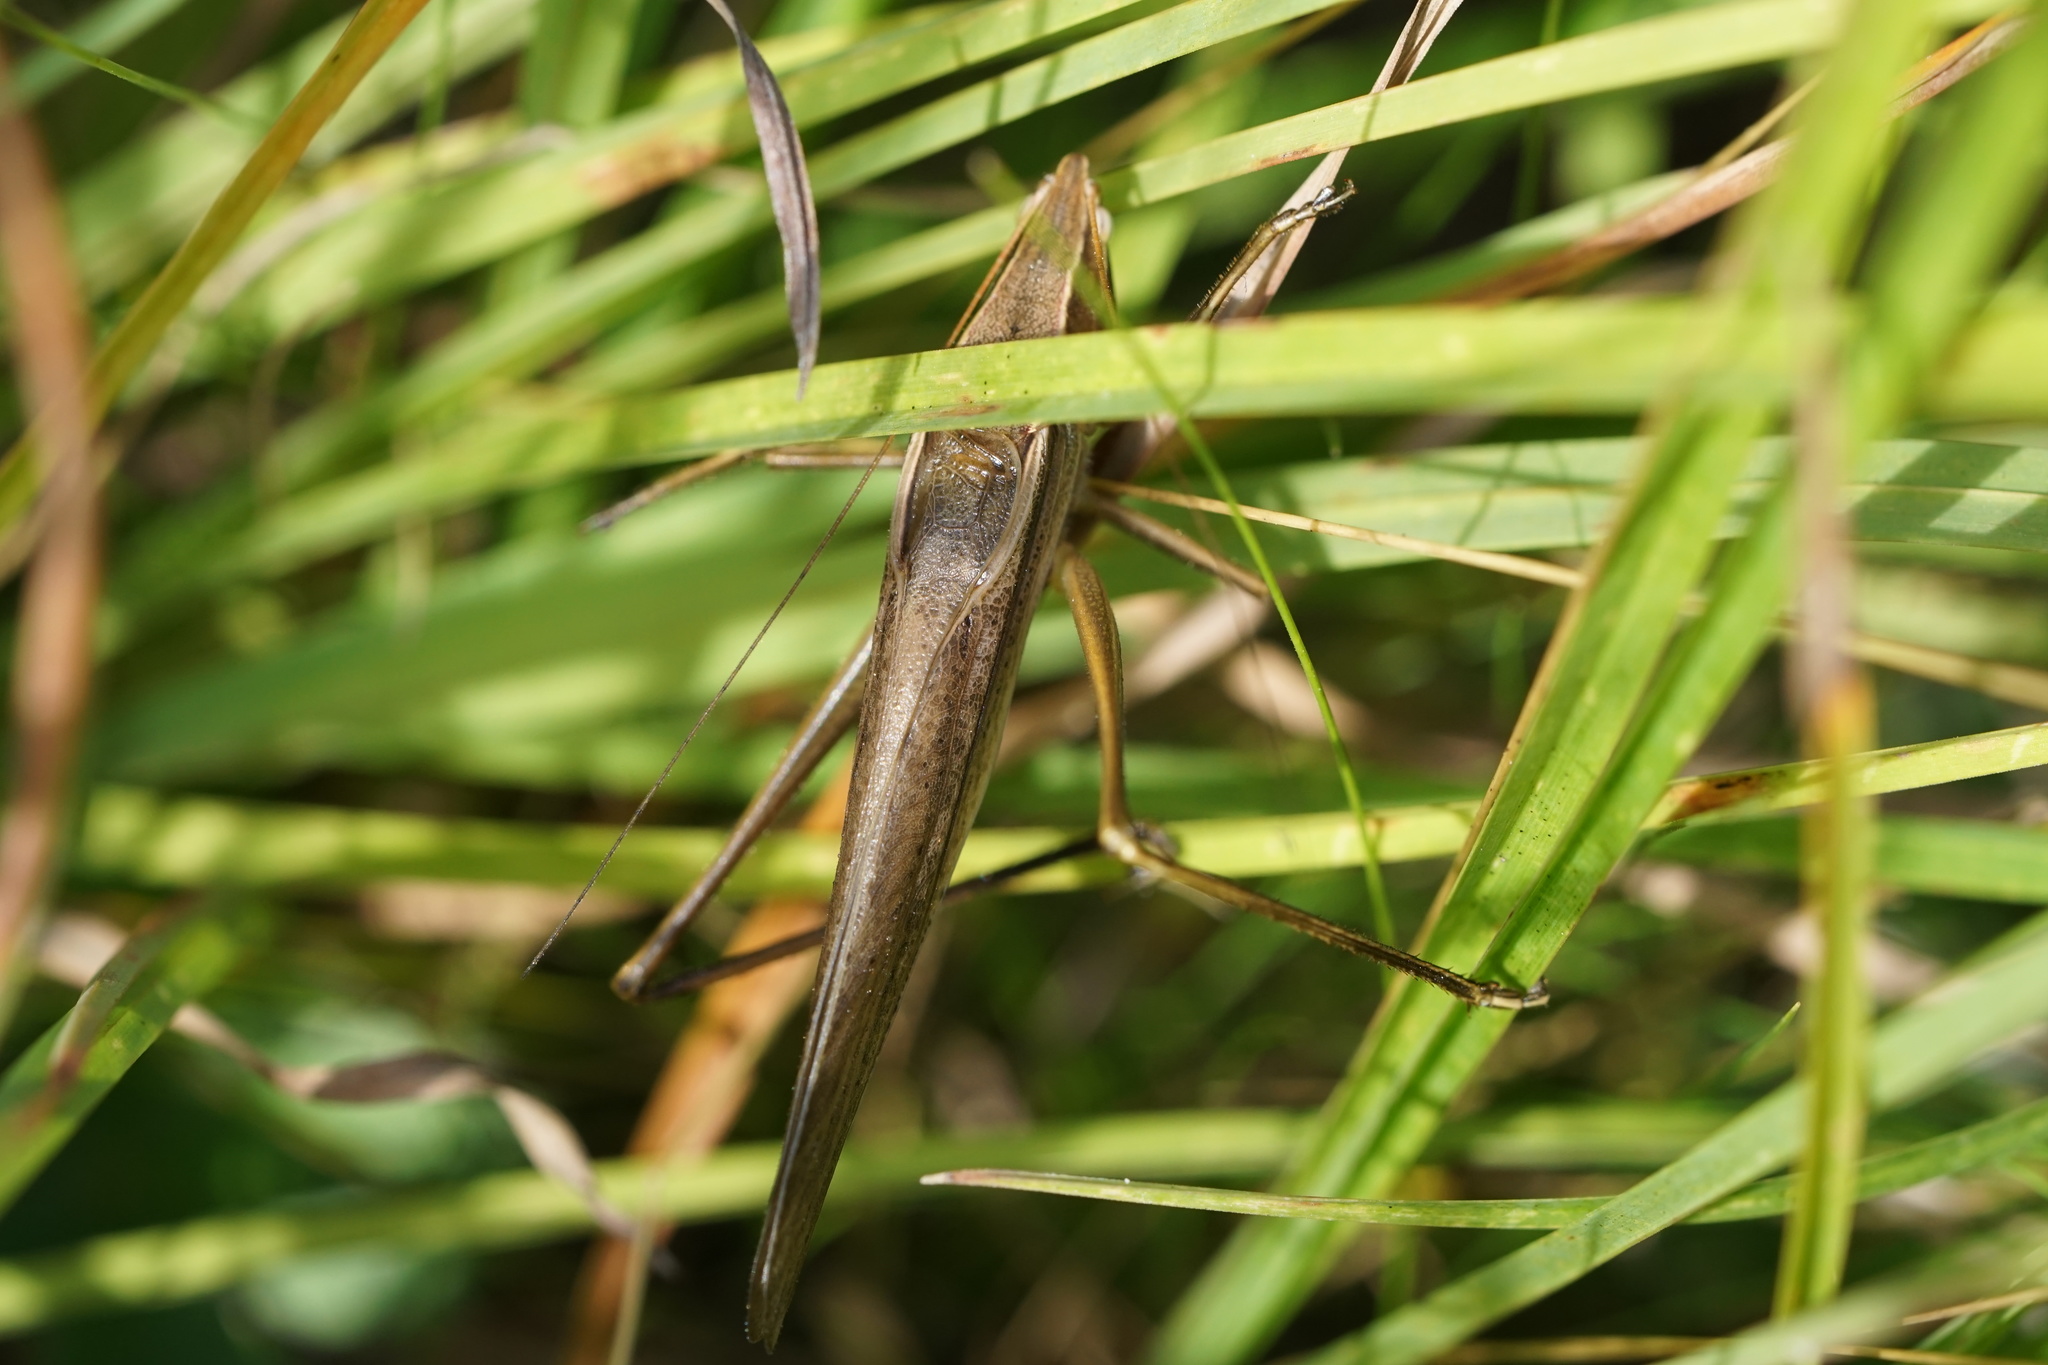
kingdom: Animalia
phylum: Arthropoda
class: Insecta
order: Orthoptera
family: Tettigoniidae
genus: Neoconocephalus
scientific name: Neoconocephalus retusus
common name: Round-tipped conehead
